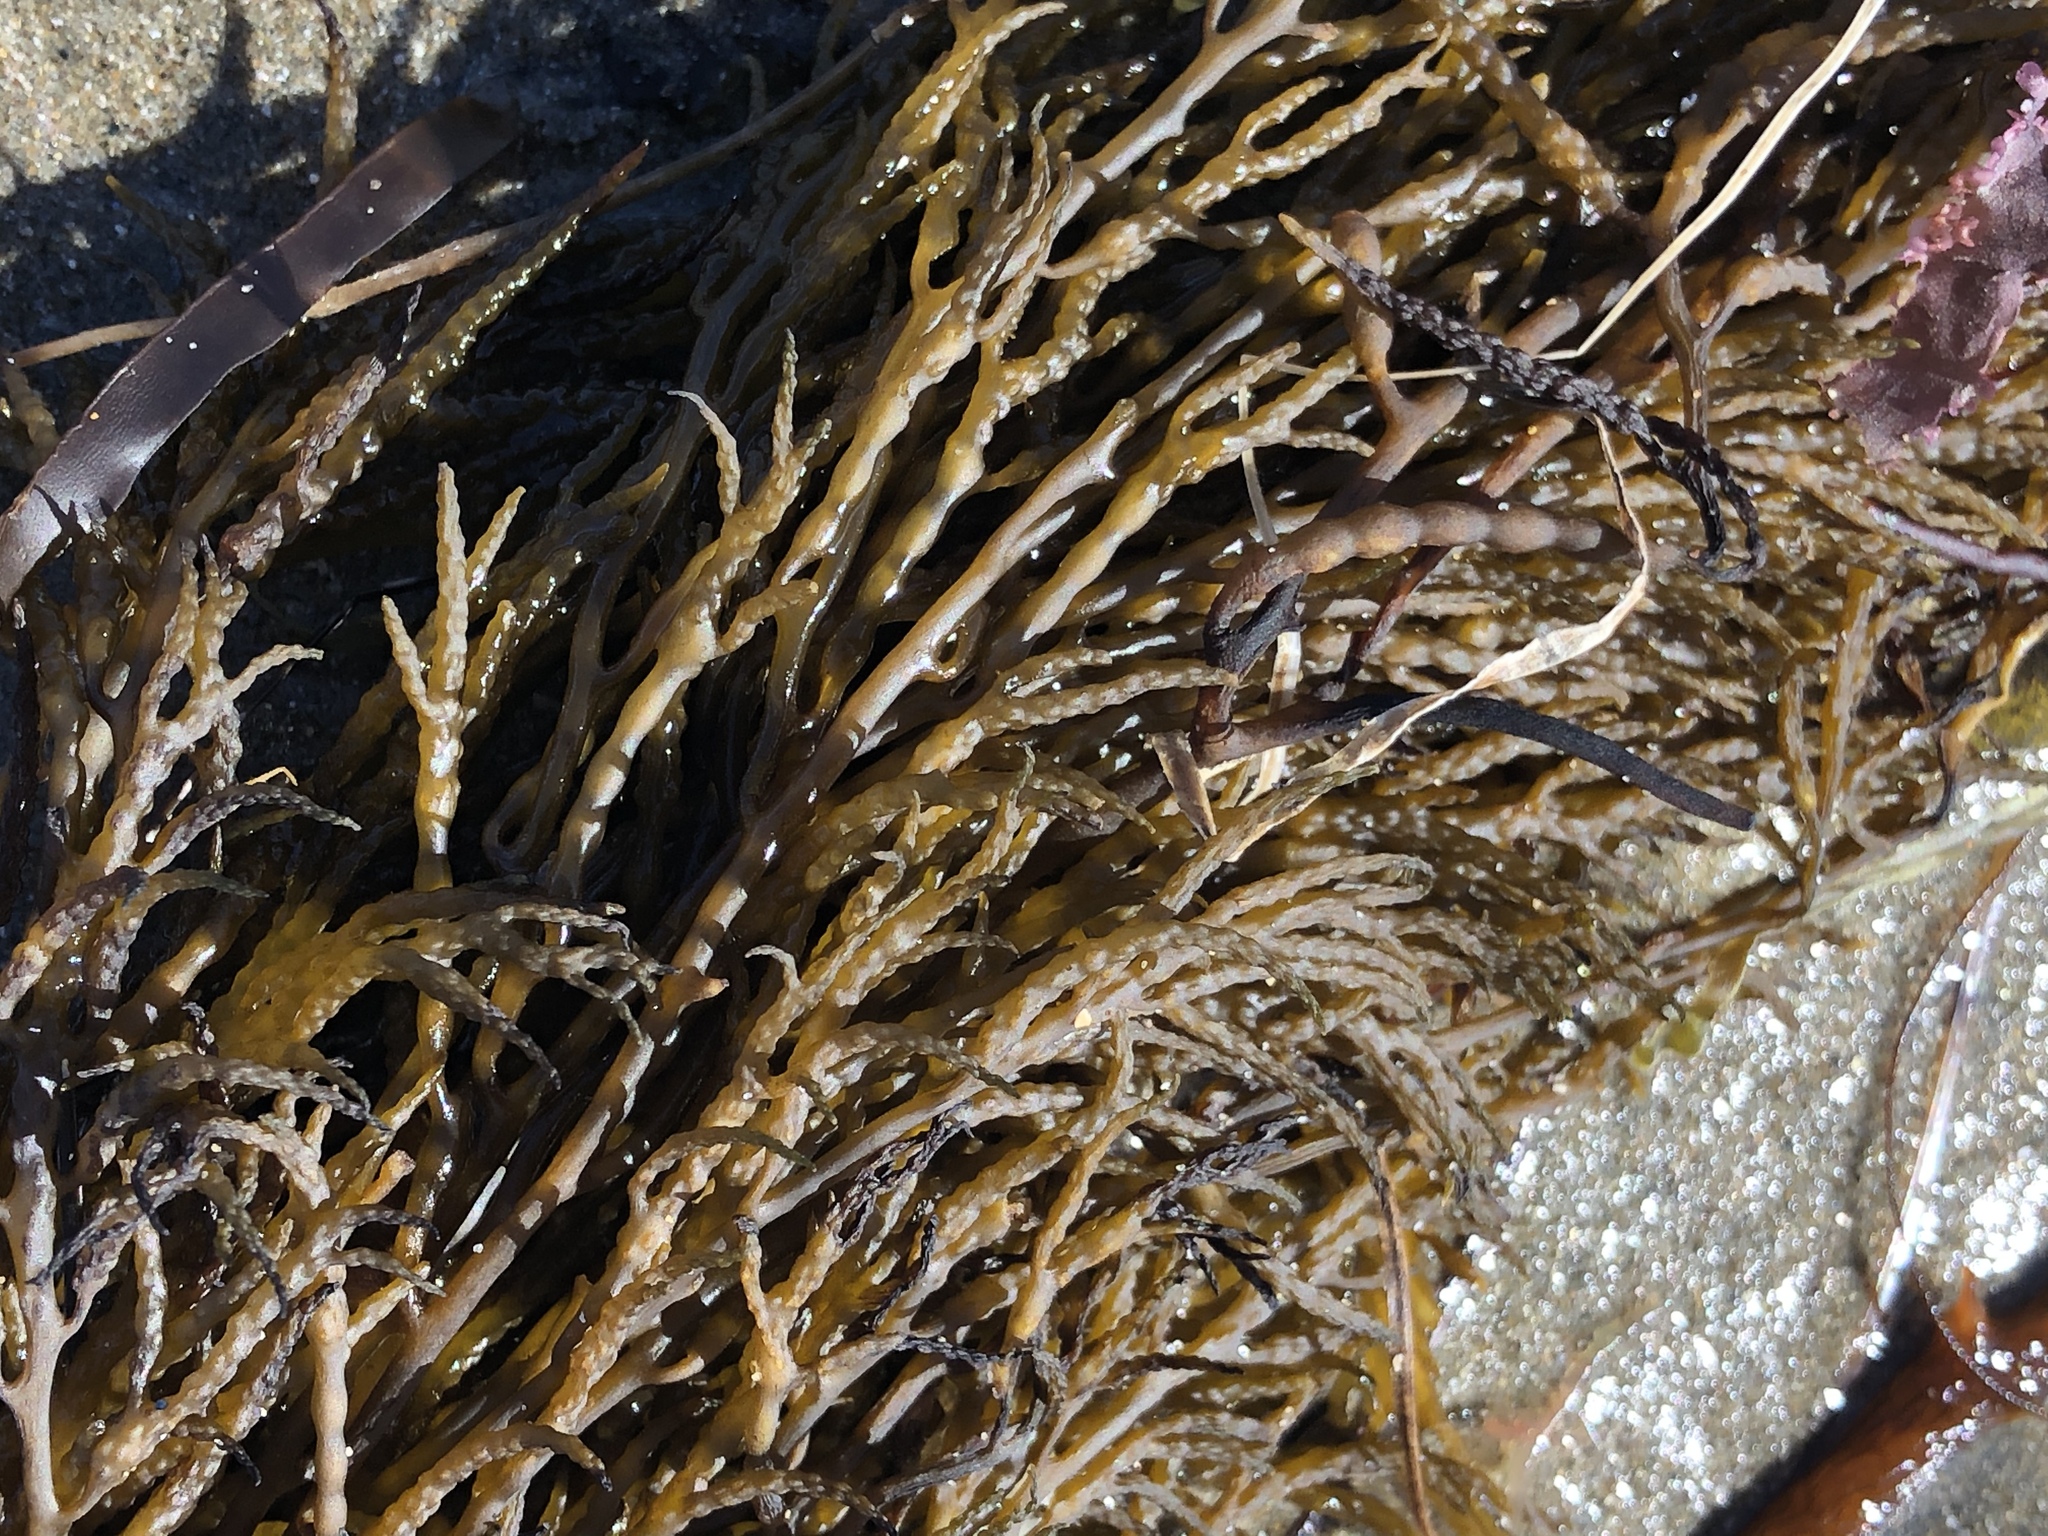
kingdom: Chromista
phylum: Ochrophyta
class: Phaeophyceae
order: Fucales
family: Sargassaceae
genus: Stephanocystis
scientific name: Stephanocystis
